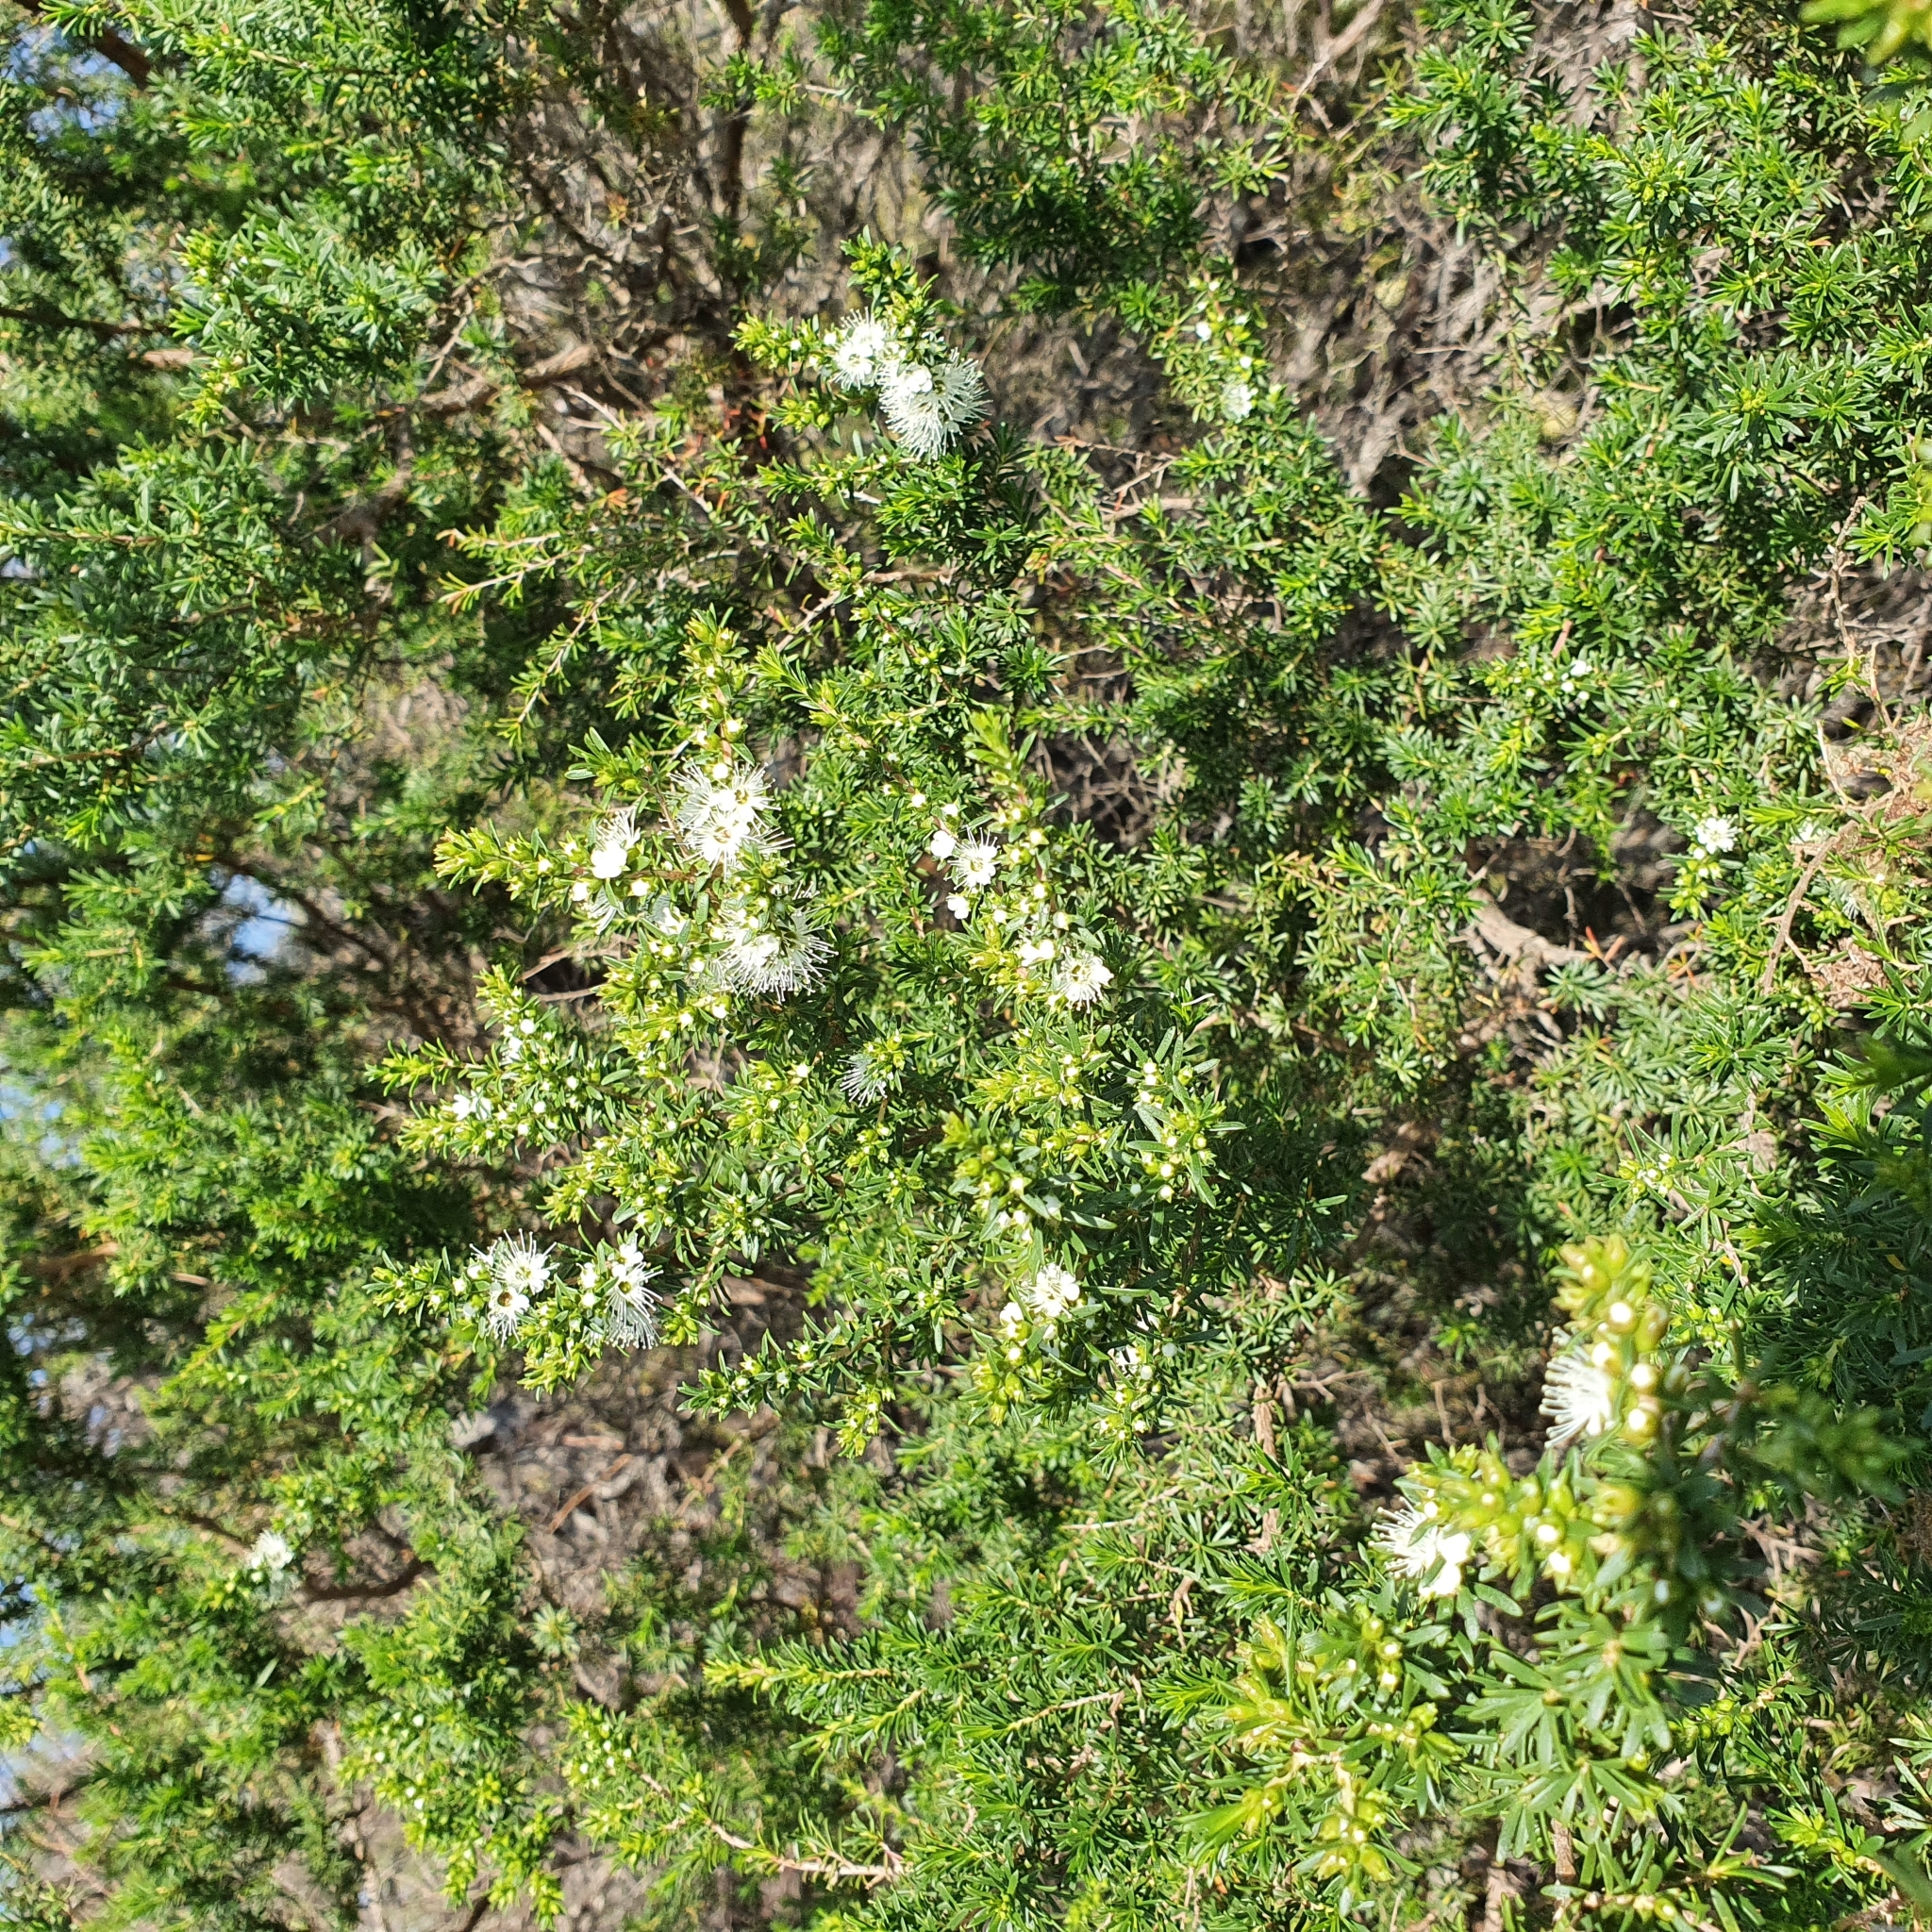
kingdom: Plantae
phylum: Tracheophyta
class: Magnoliopsida
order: Myrtales
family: Myrtaceae
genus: Kunzea
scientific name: Kunzea ambigua
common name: Tickbush
